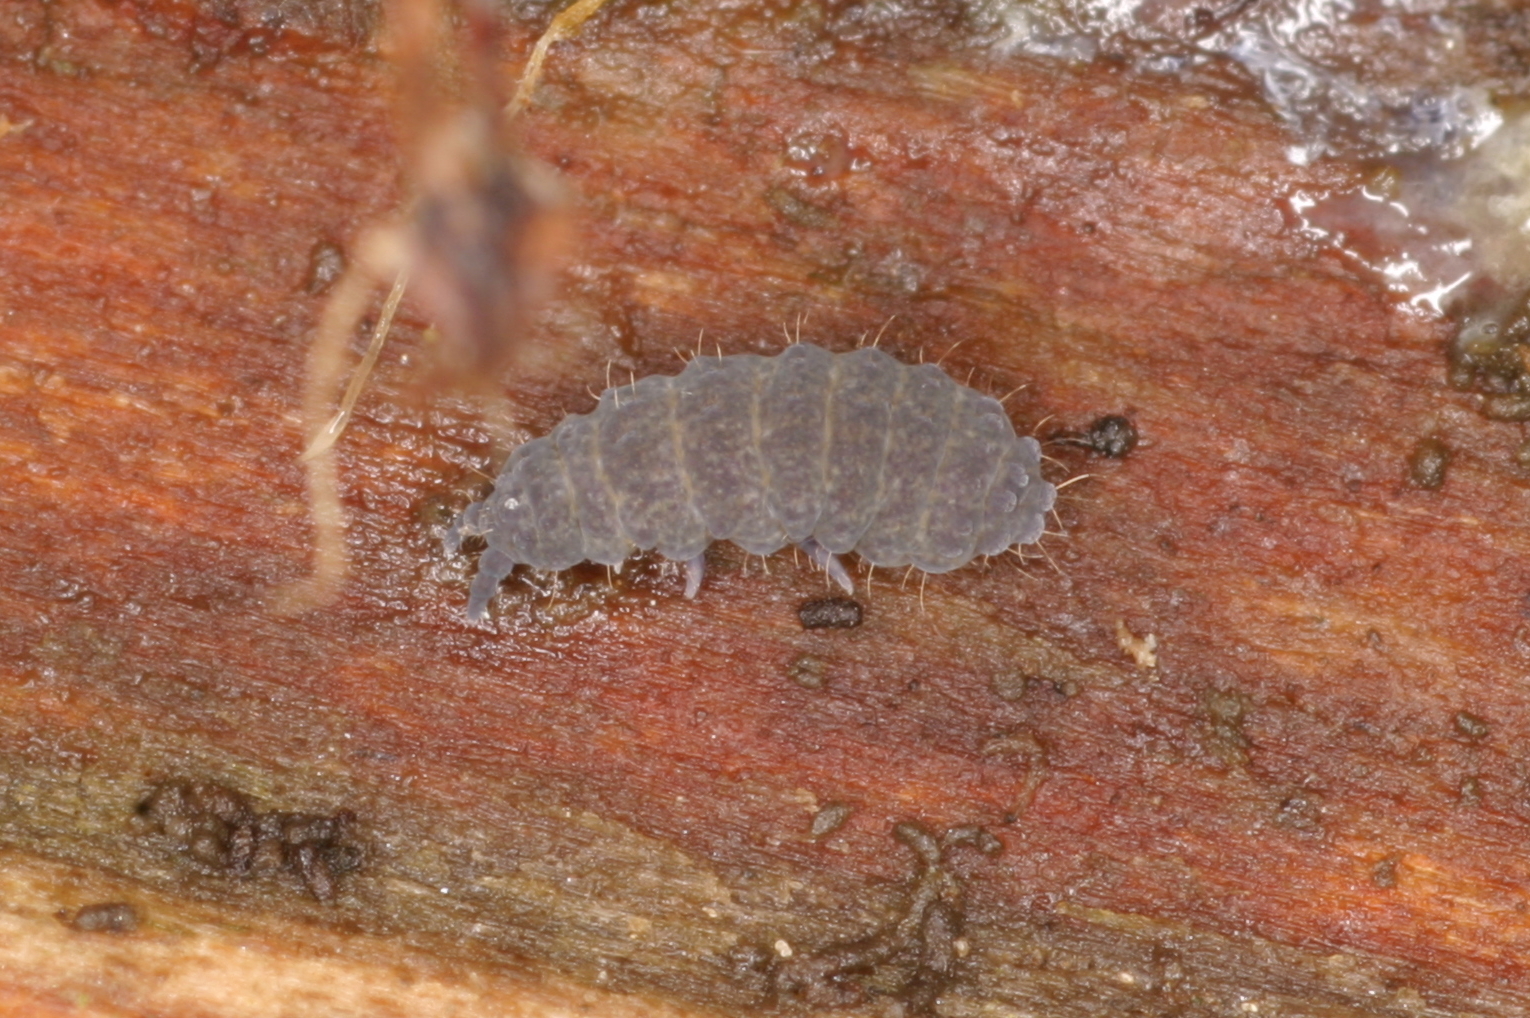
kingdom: Animalia
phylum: Arthropoda
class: Collembola
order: Poduromorpha
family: Neanuridae
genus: Neanura
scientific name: Neanura muscorum
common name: Springtail
